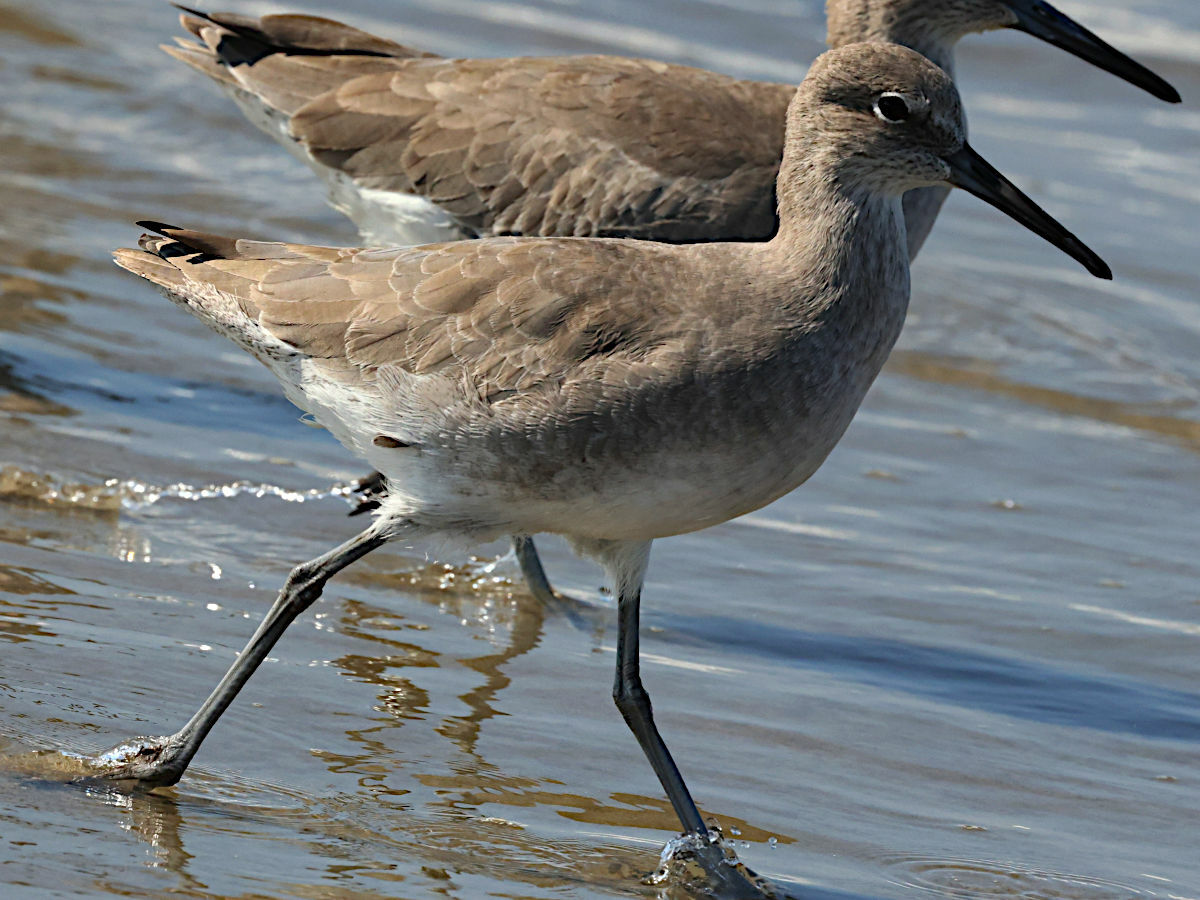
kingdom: Animalia
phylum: Chordata
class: Aves
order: Charadriiformes
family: Scolopacidae
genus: Tringa
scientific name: Tringa semipalmata
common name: Willet
